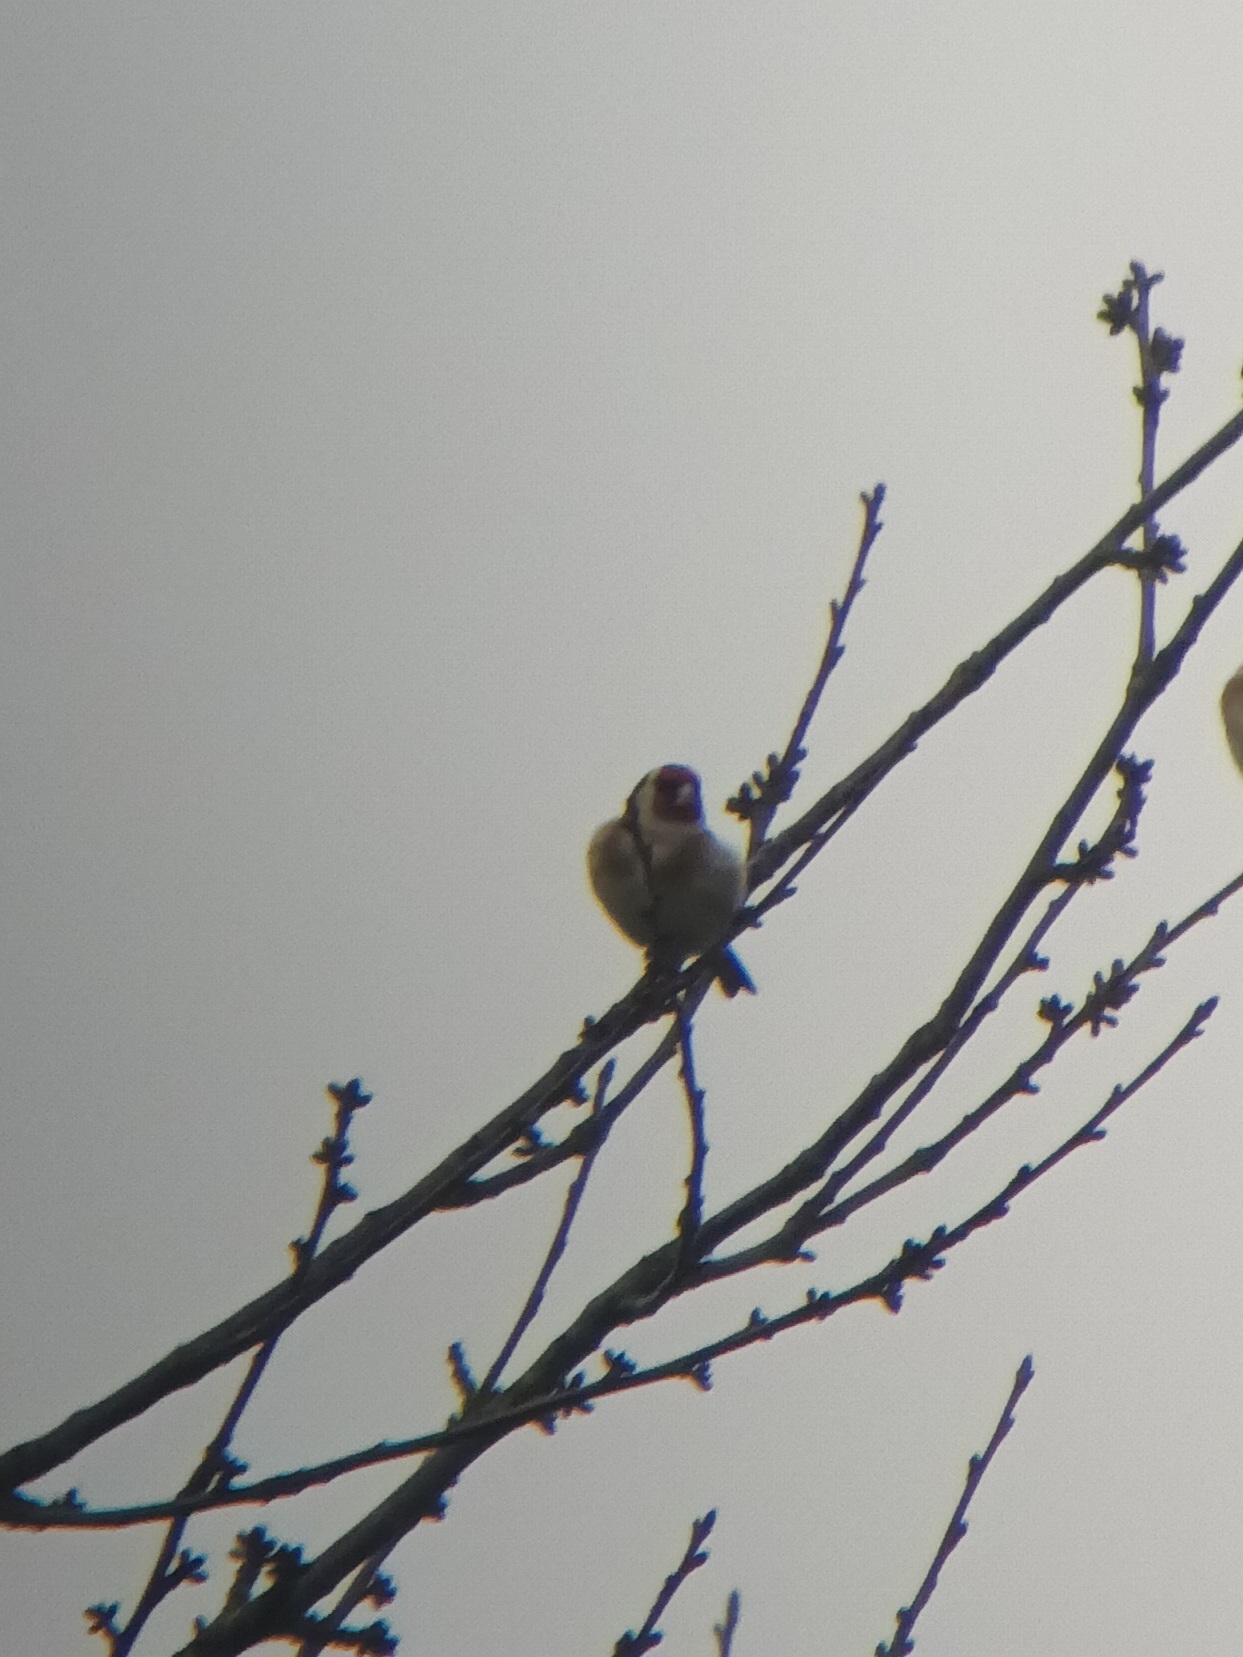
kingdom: Animalia
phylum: Chordata
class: Aves
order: Passeriformes
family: Fringillidae
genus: Carduelis
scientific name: Carduelis carduelis
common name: European goldfinch
